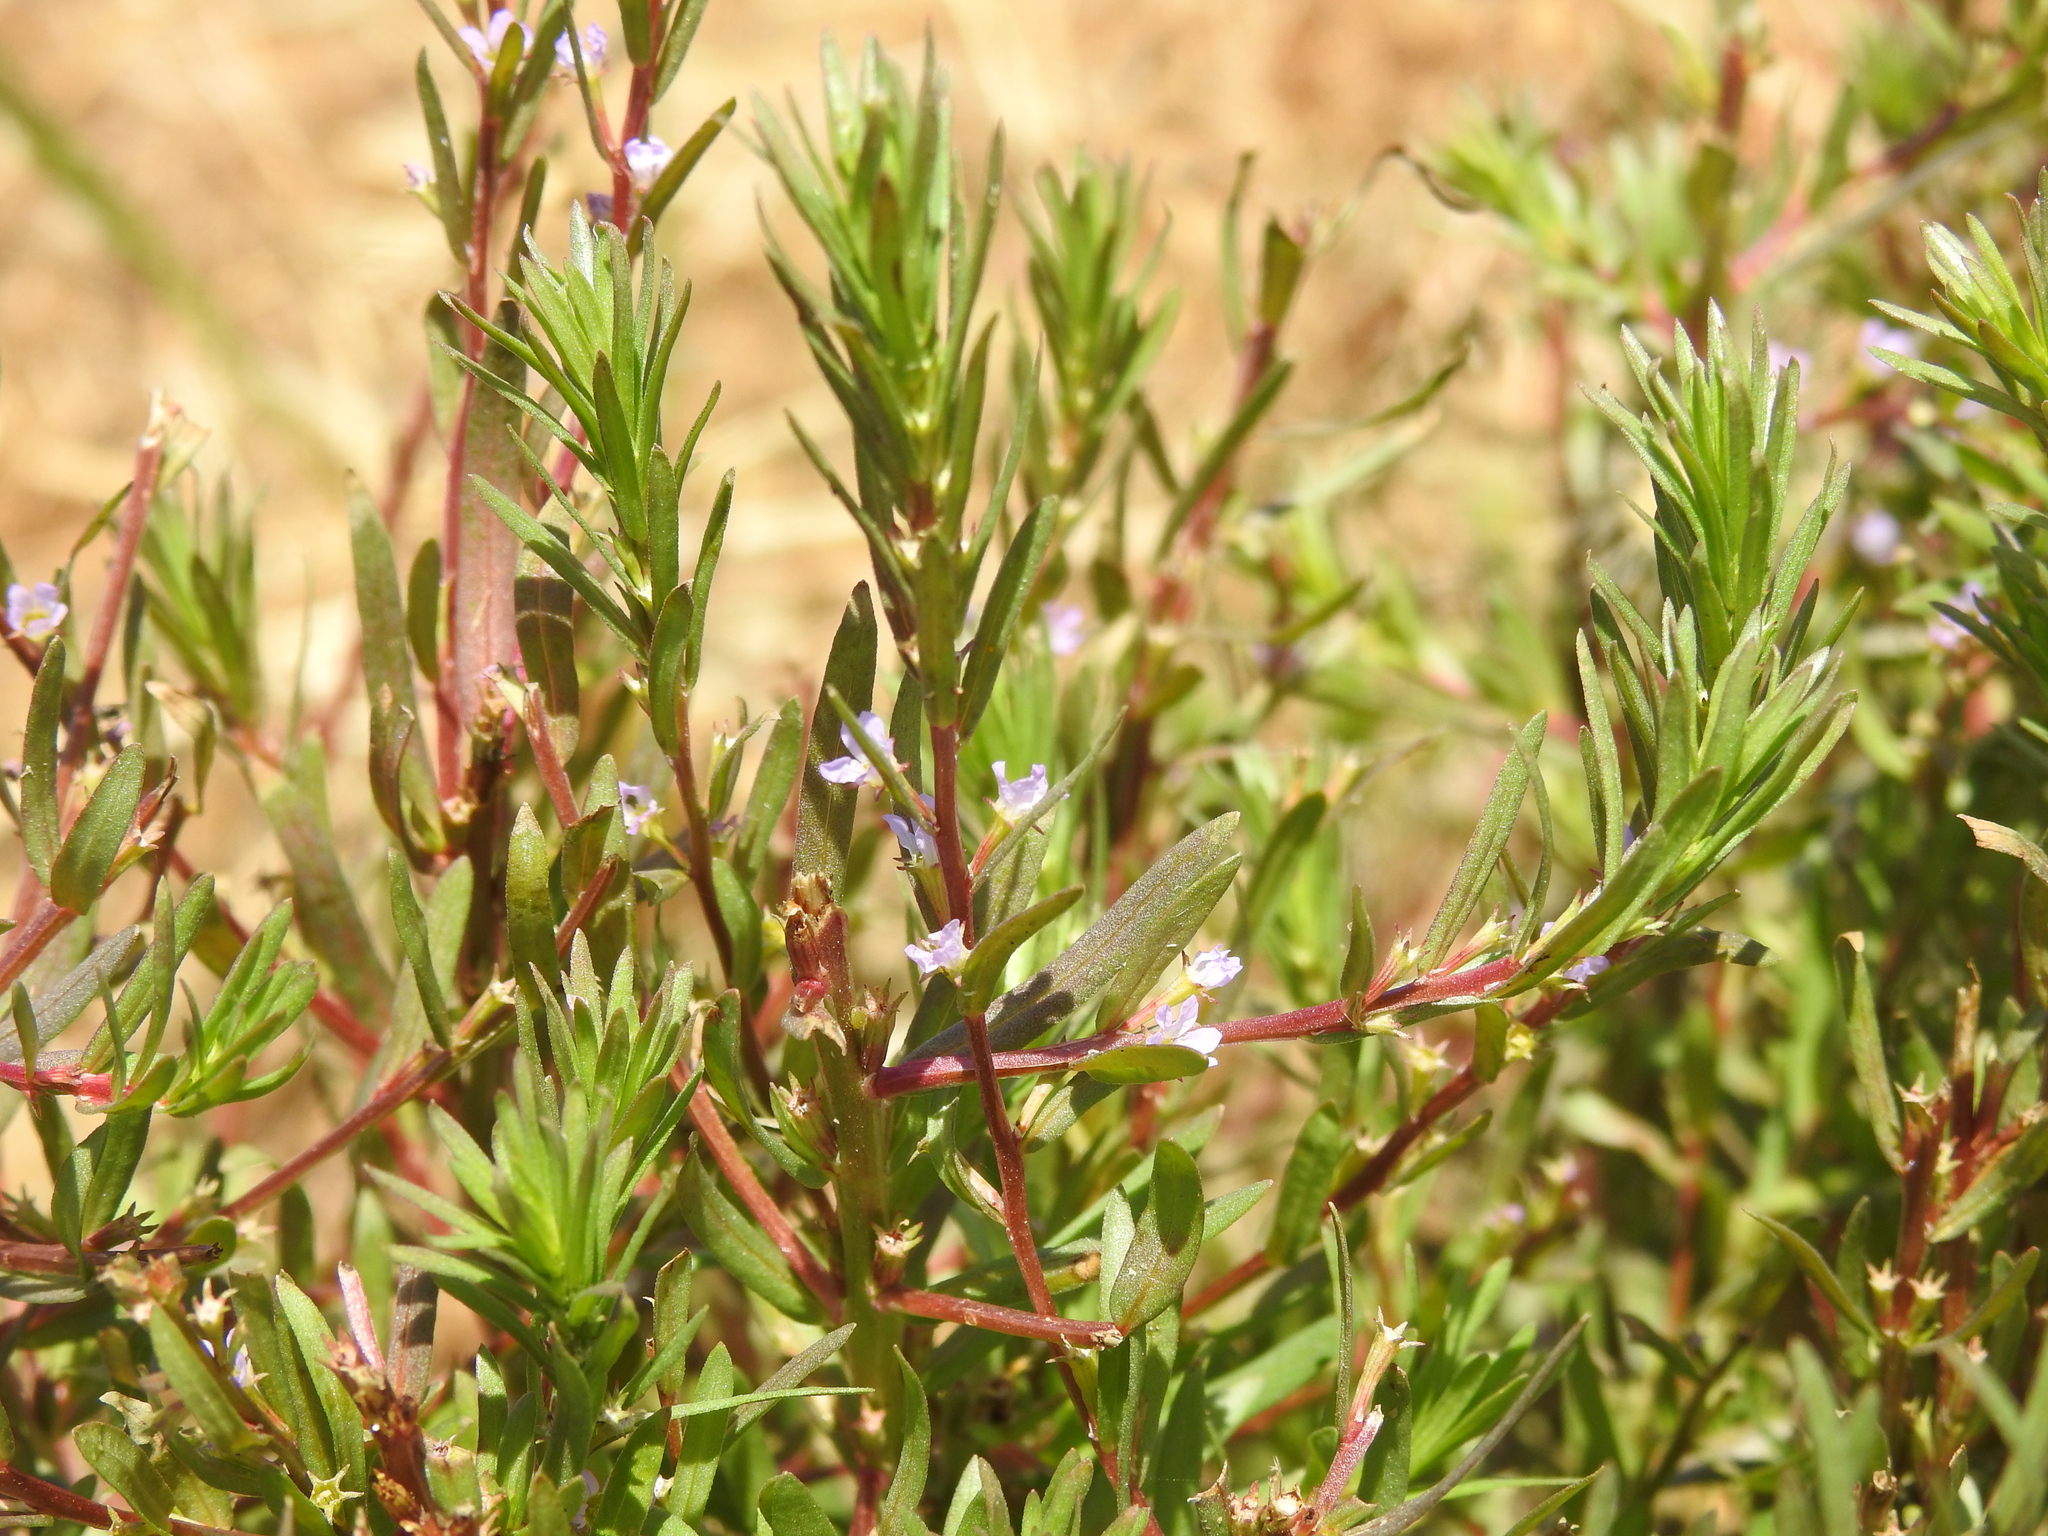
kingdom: Plantae
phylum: Tracheophyta
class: Magnoliopsida
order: Myrtales
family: Lythraceae
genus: Lythrum
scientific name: Lythrum hyssopifolia
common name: Grass-poly
